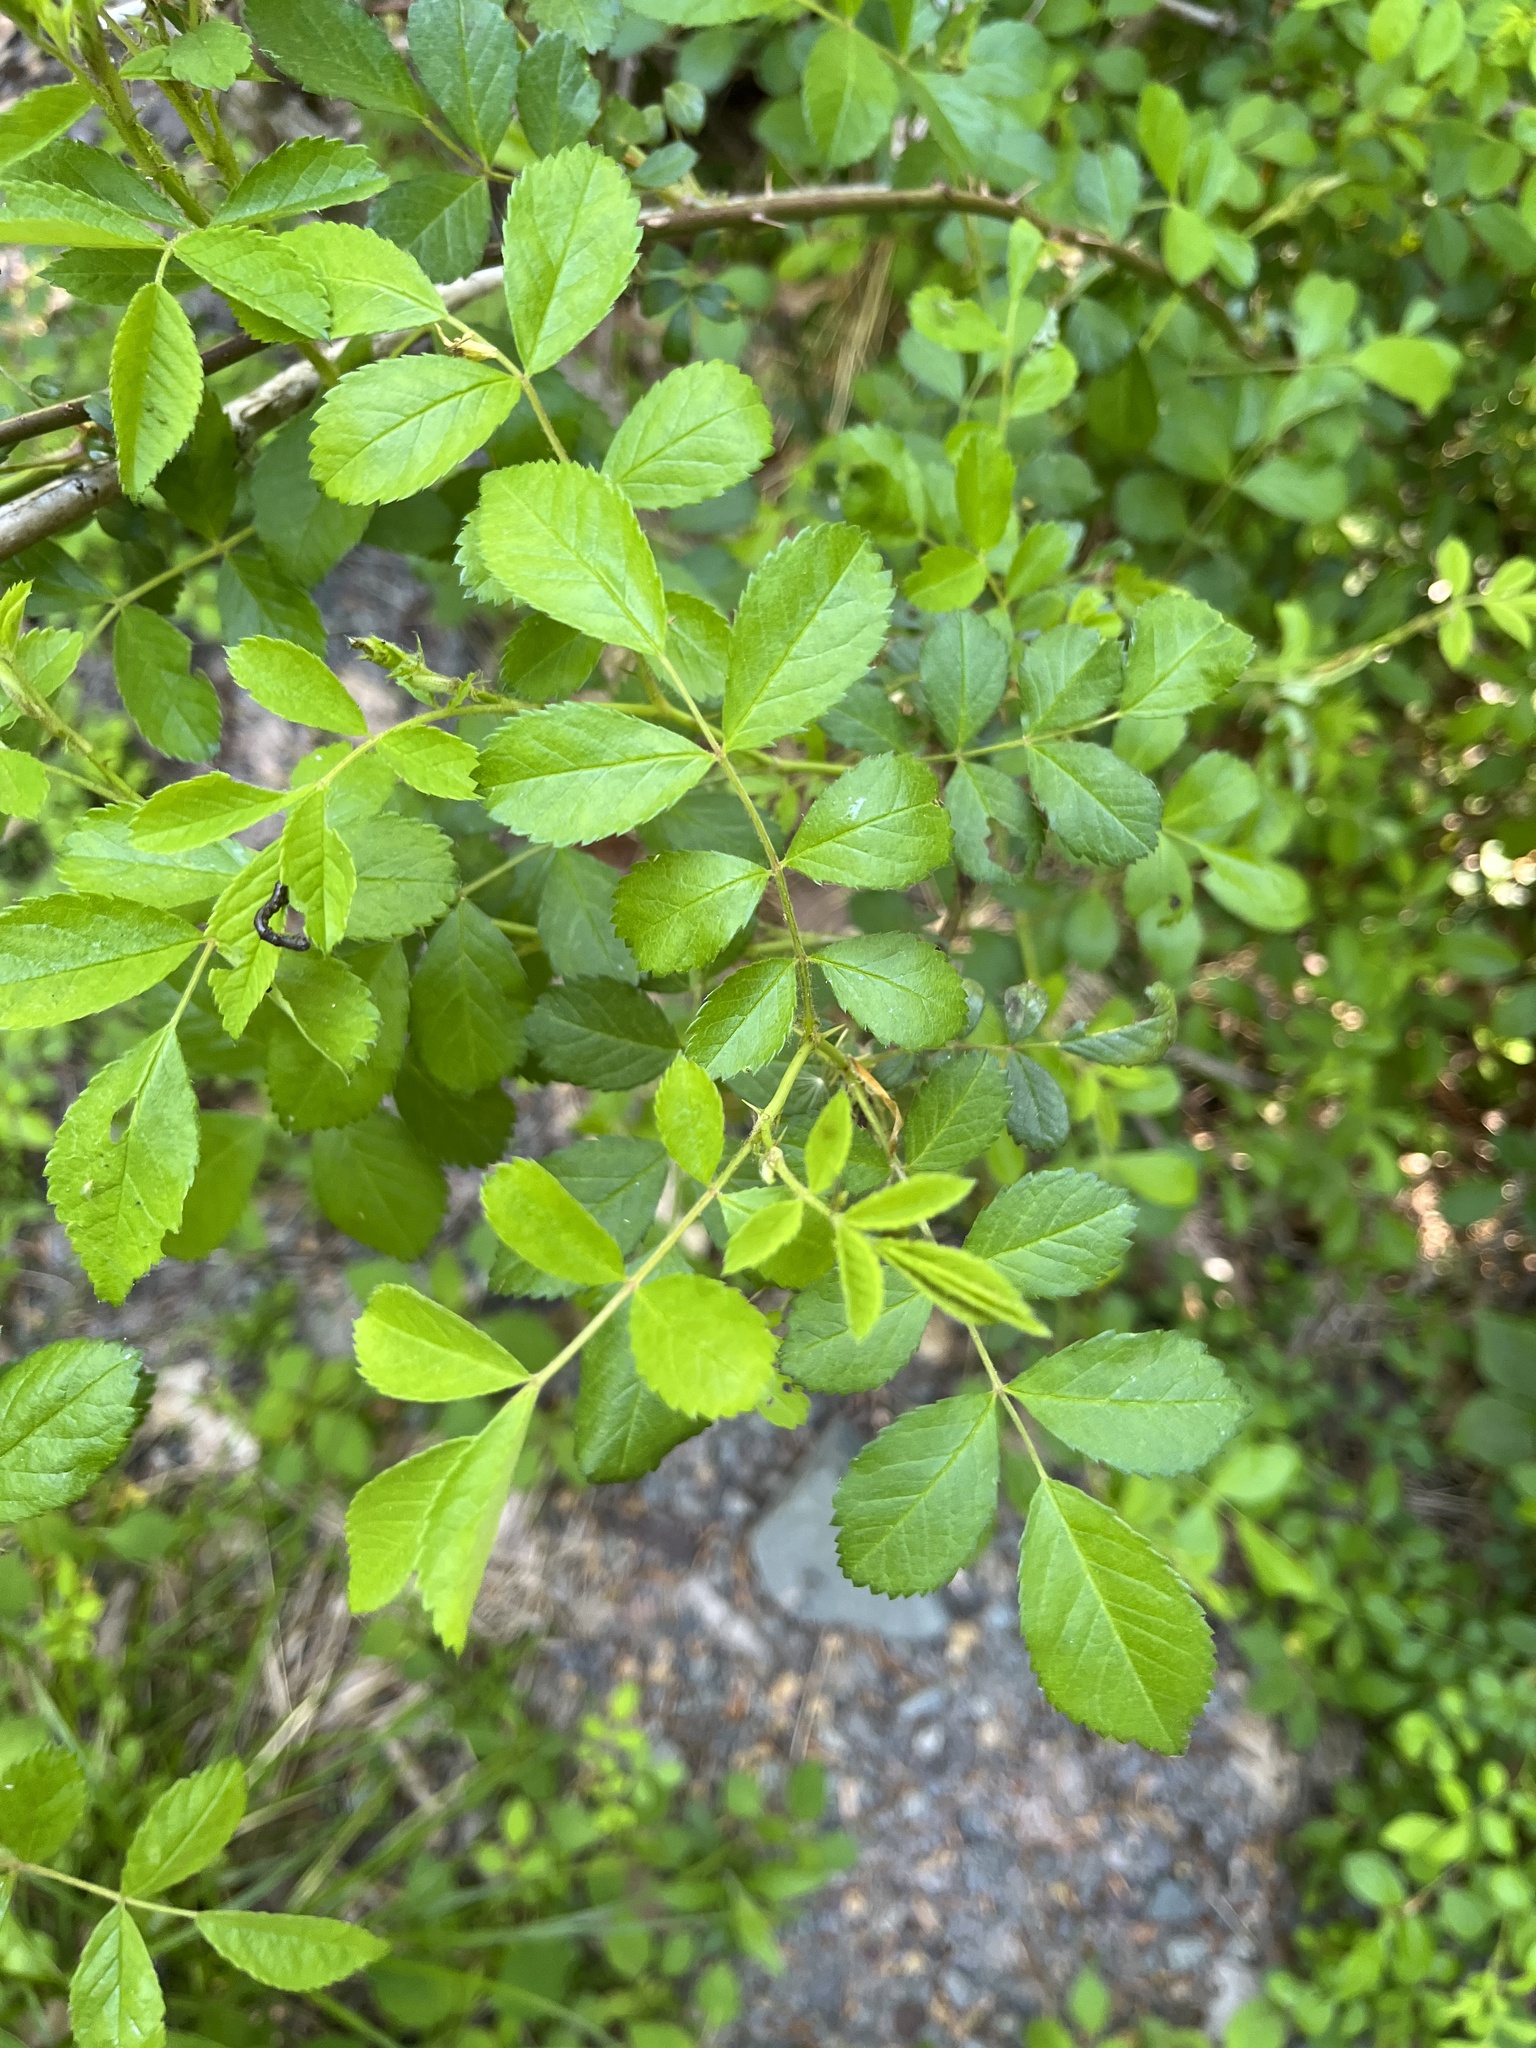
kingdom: Plantae
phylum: Tracheophyta
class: Magnoliopsida
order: Rosales
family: Rosaceae
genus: Rosa
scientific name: Rosa multiflora
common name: Multiflora rose
